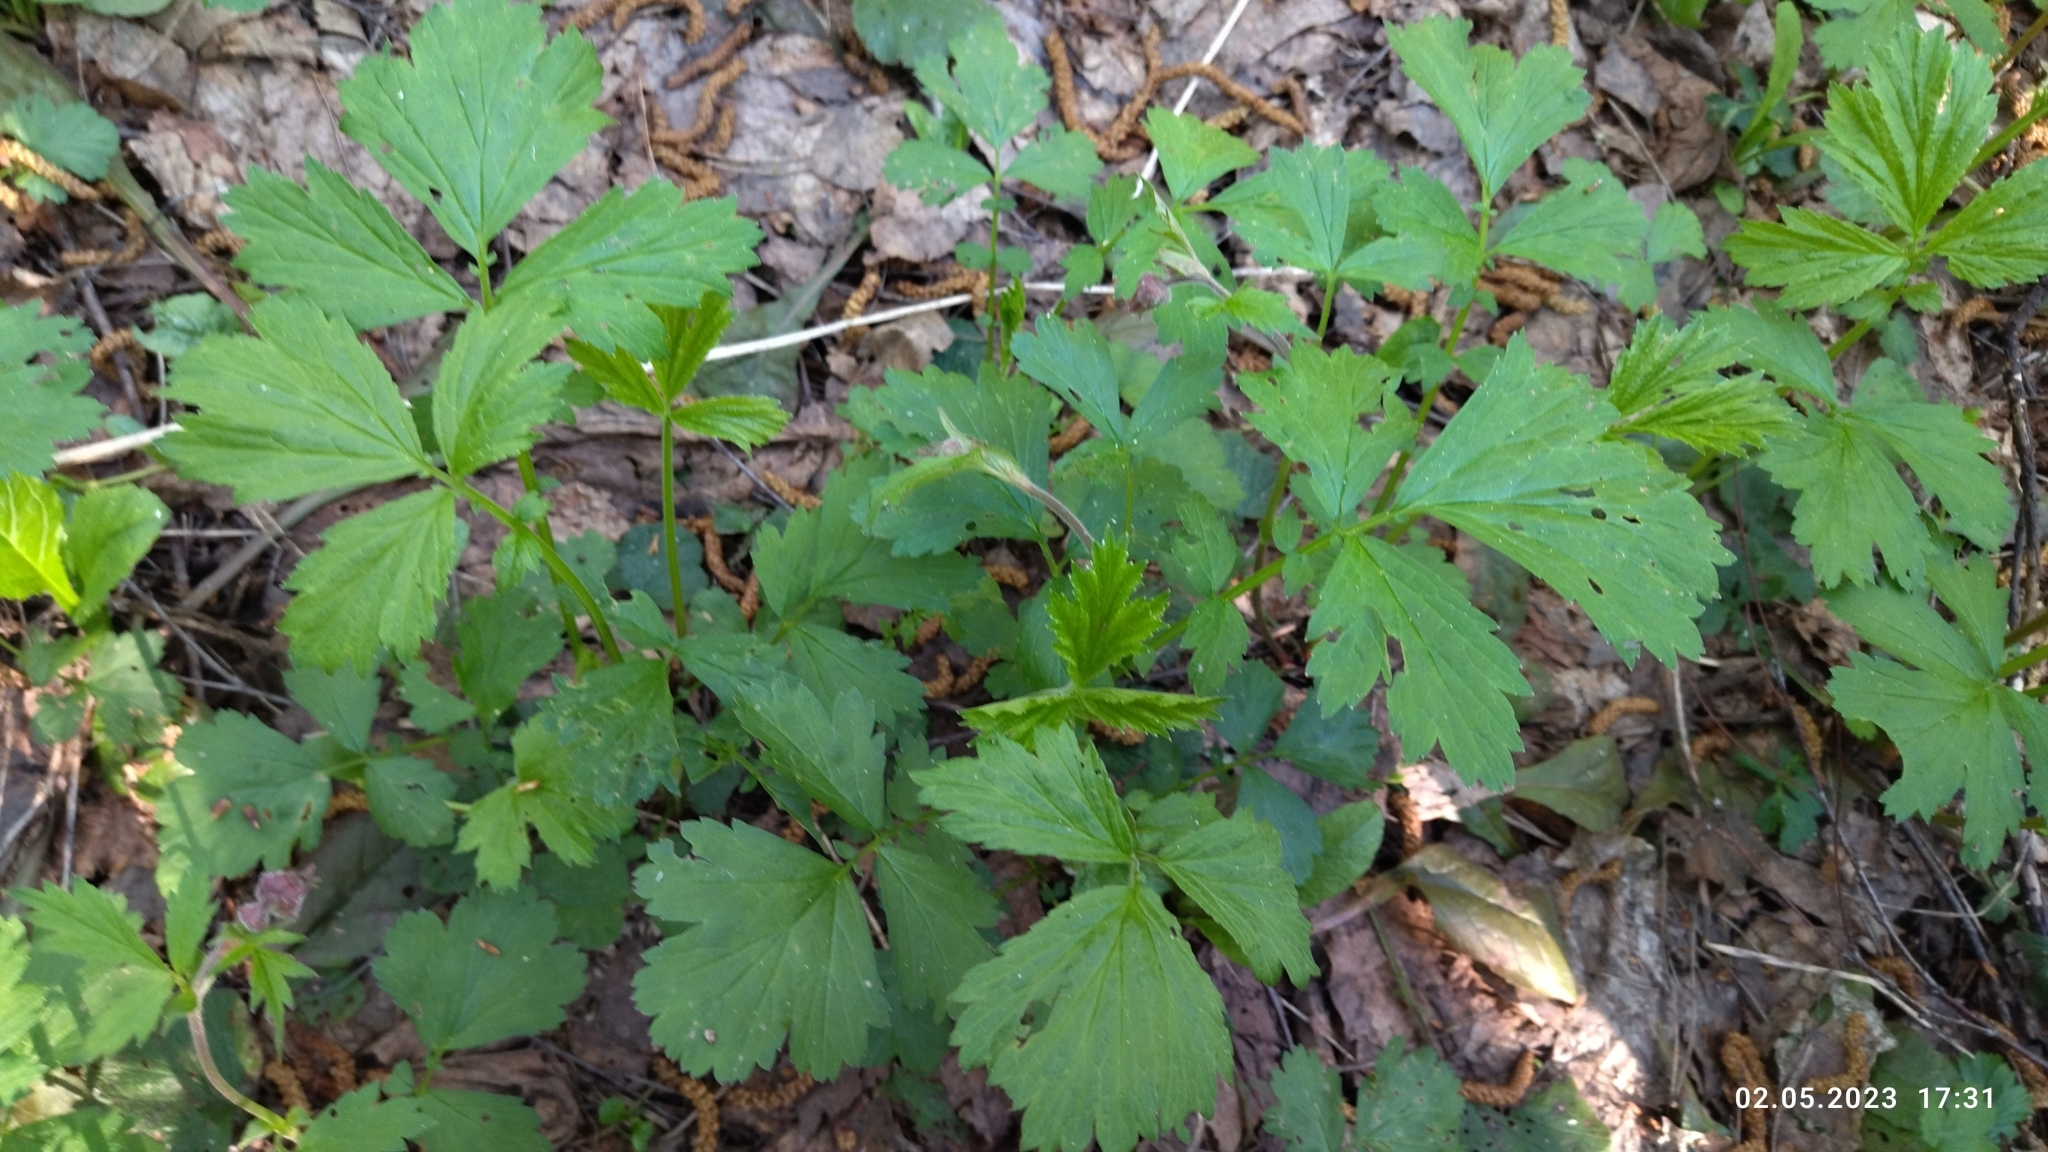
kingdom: Plantae
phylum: Tracheophyta
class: Magnoliopsida
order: Rosales
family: Rosaceae
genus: Geum
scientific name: Geum rivale
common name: Water avens
